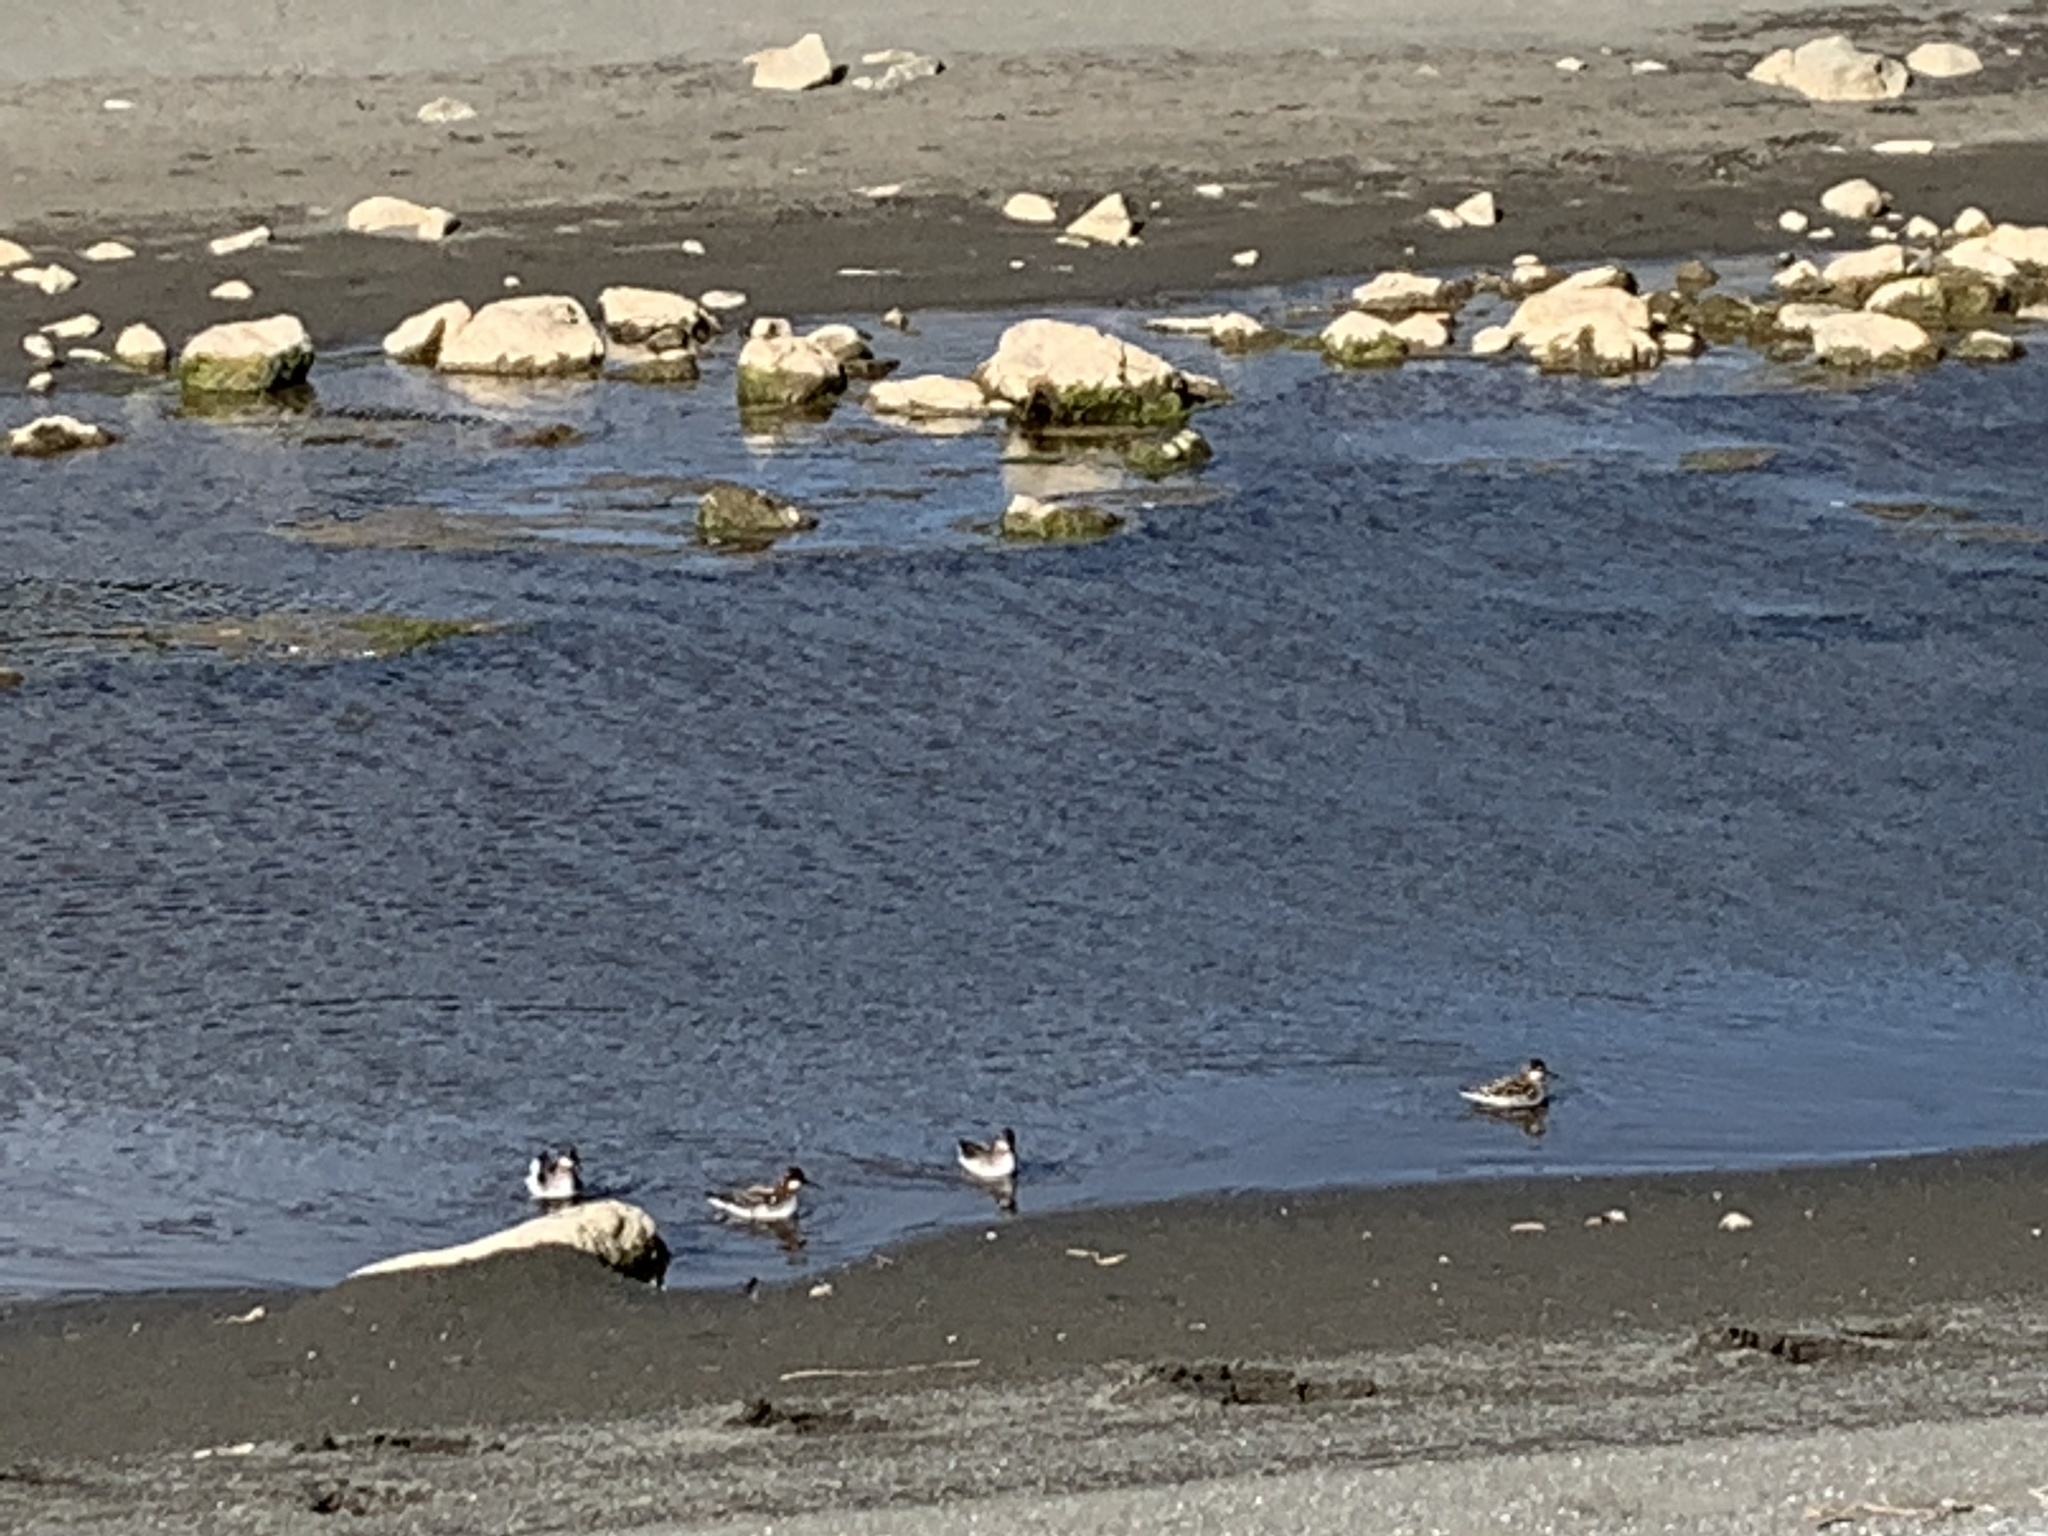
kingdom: Animalia
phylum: Chordata
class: Aves
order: Charadriiformes
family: Scolopacidae
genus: Phalaropus
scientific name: Phalaropus lobatus
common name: Red-necked phalarope
